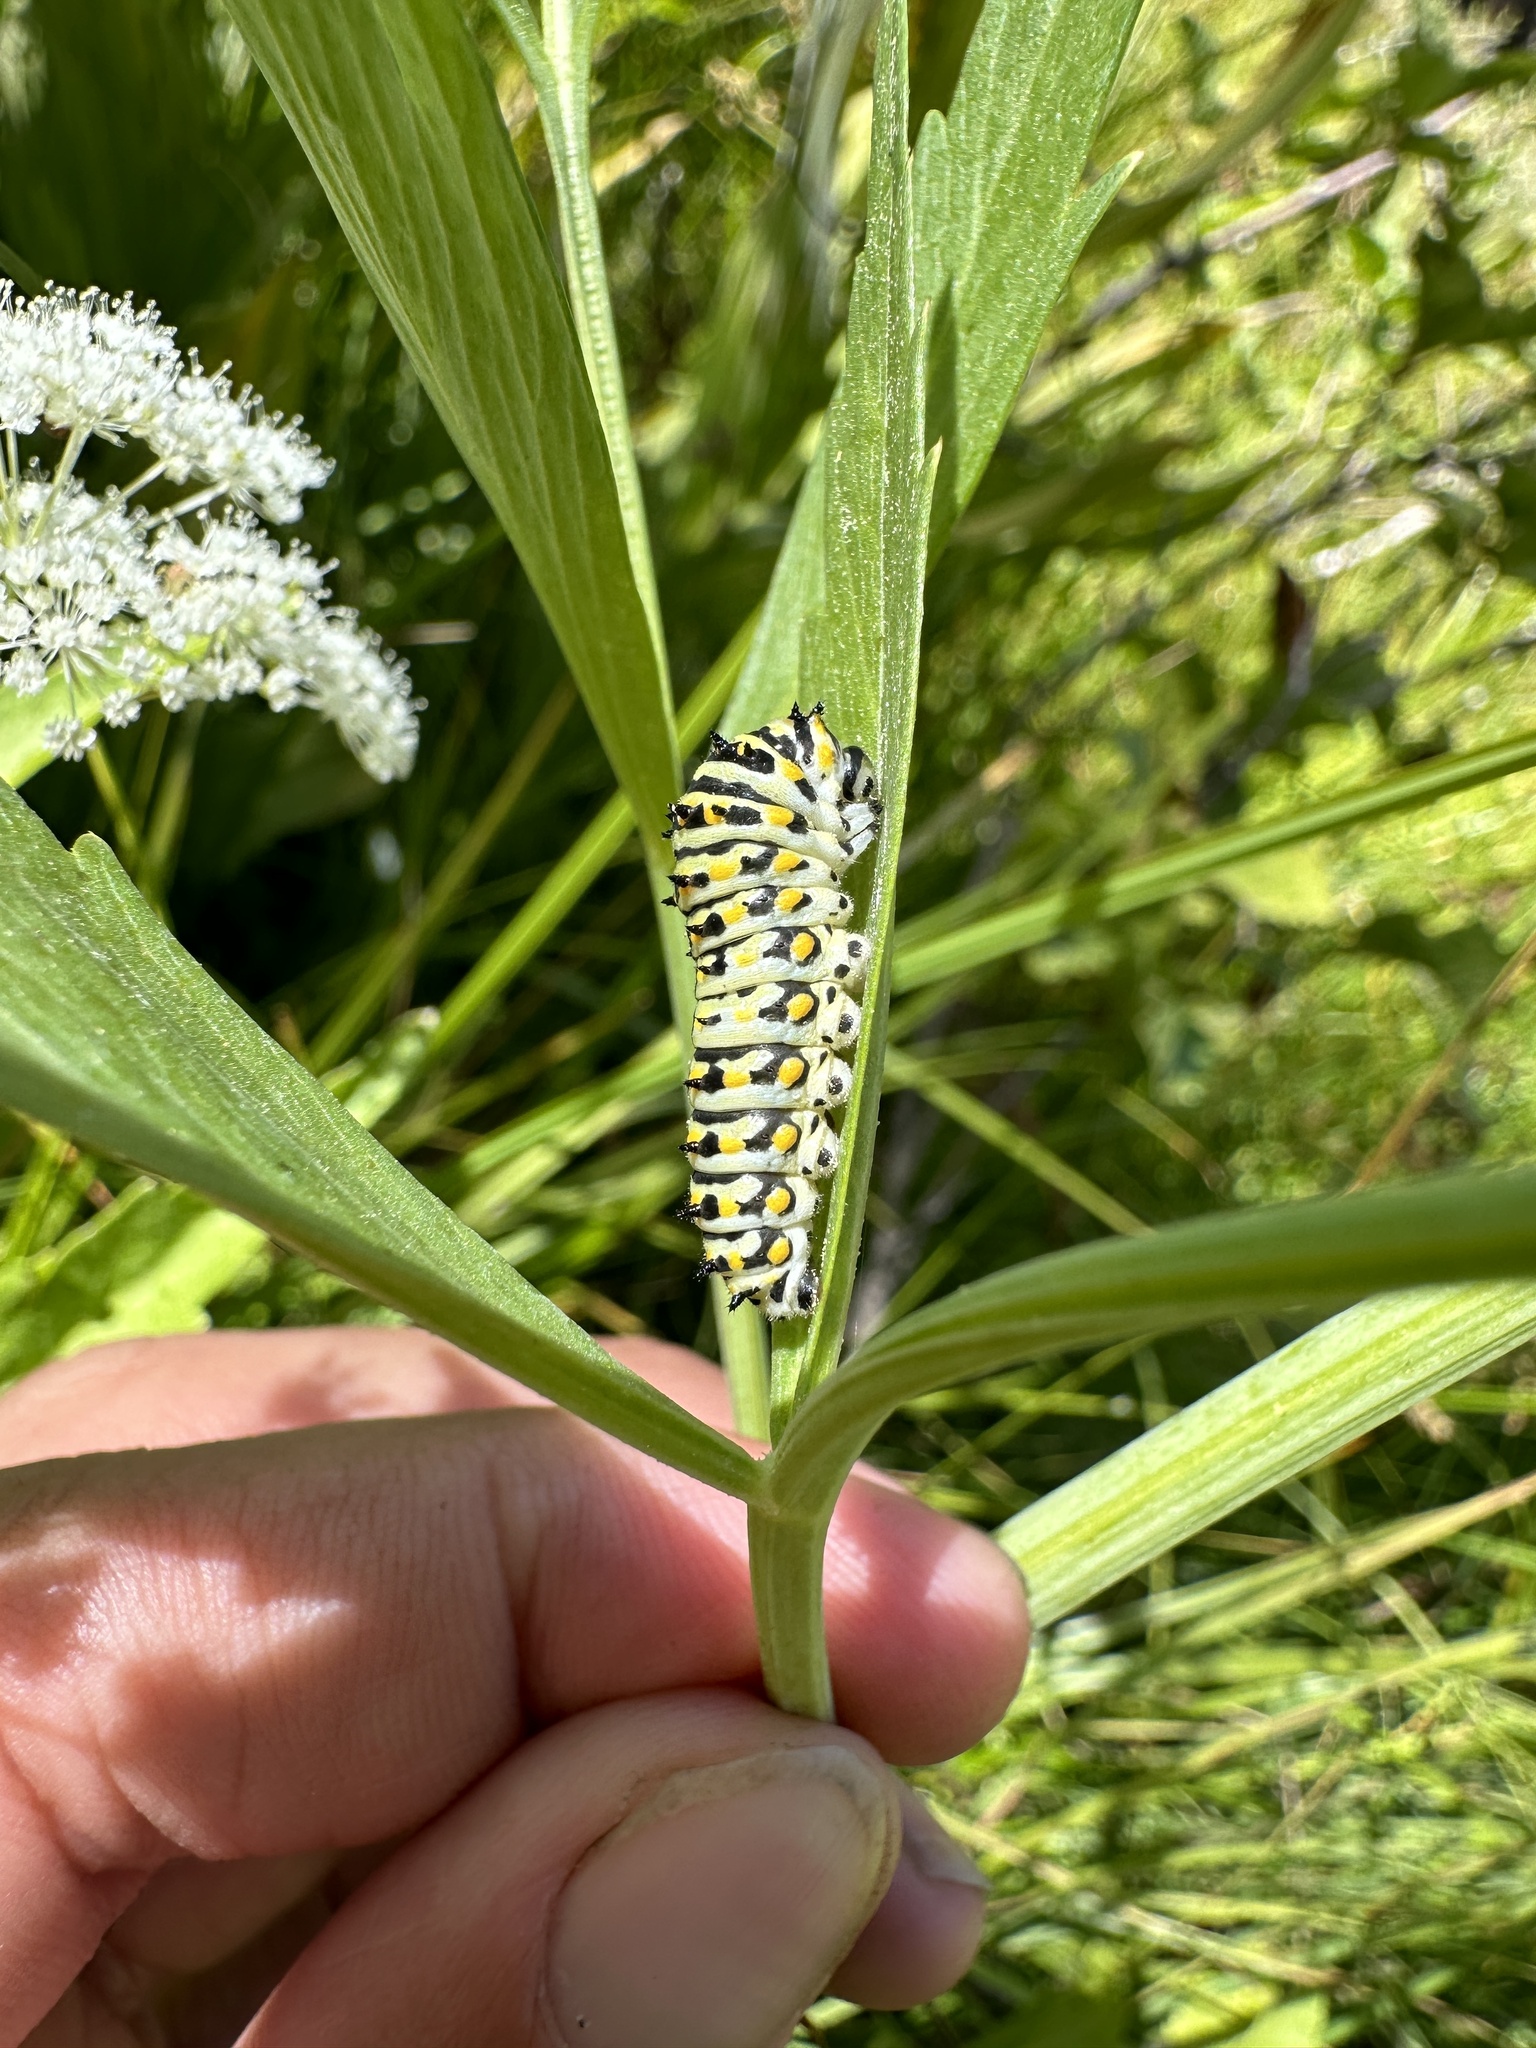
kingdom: Animalia
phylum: Arthropoda
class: Insecta
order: Lepidoptera
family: Papilionidae
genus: Papilio
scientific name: Papilio zelicaon
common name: Anise swallowtail
